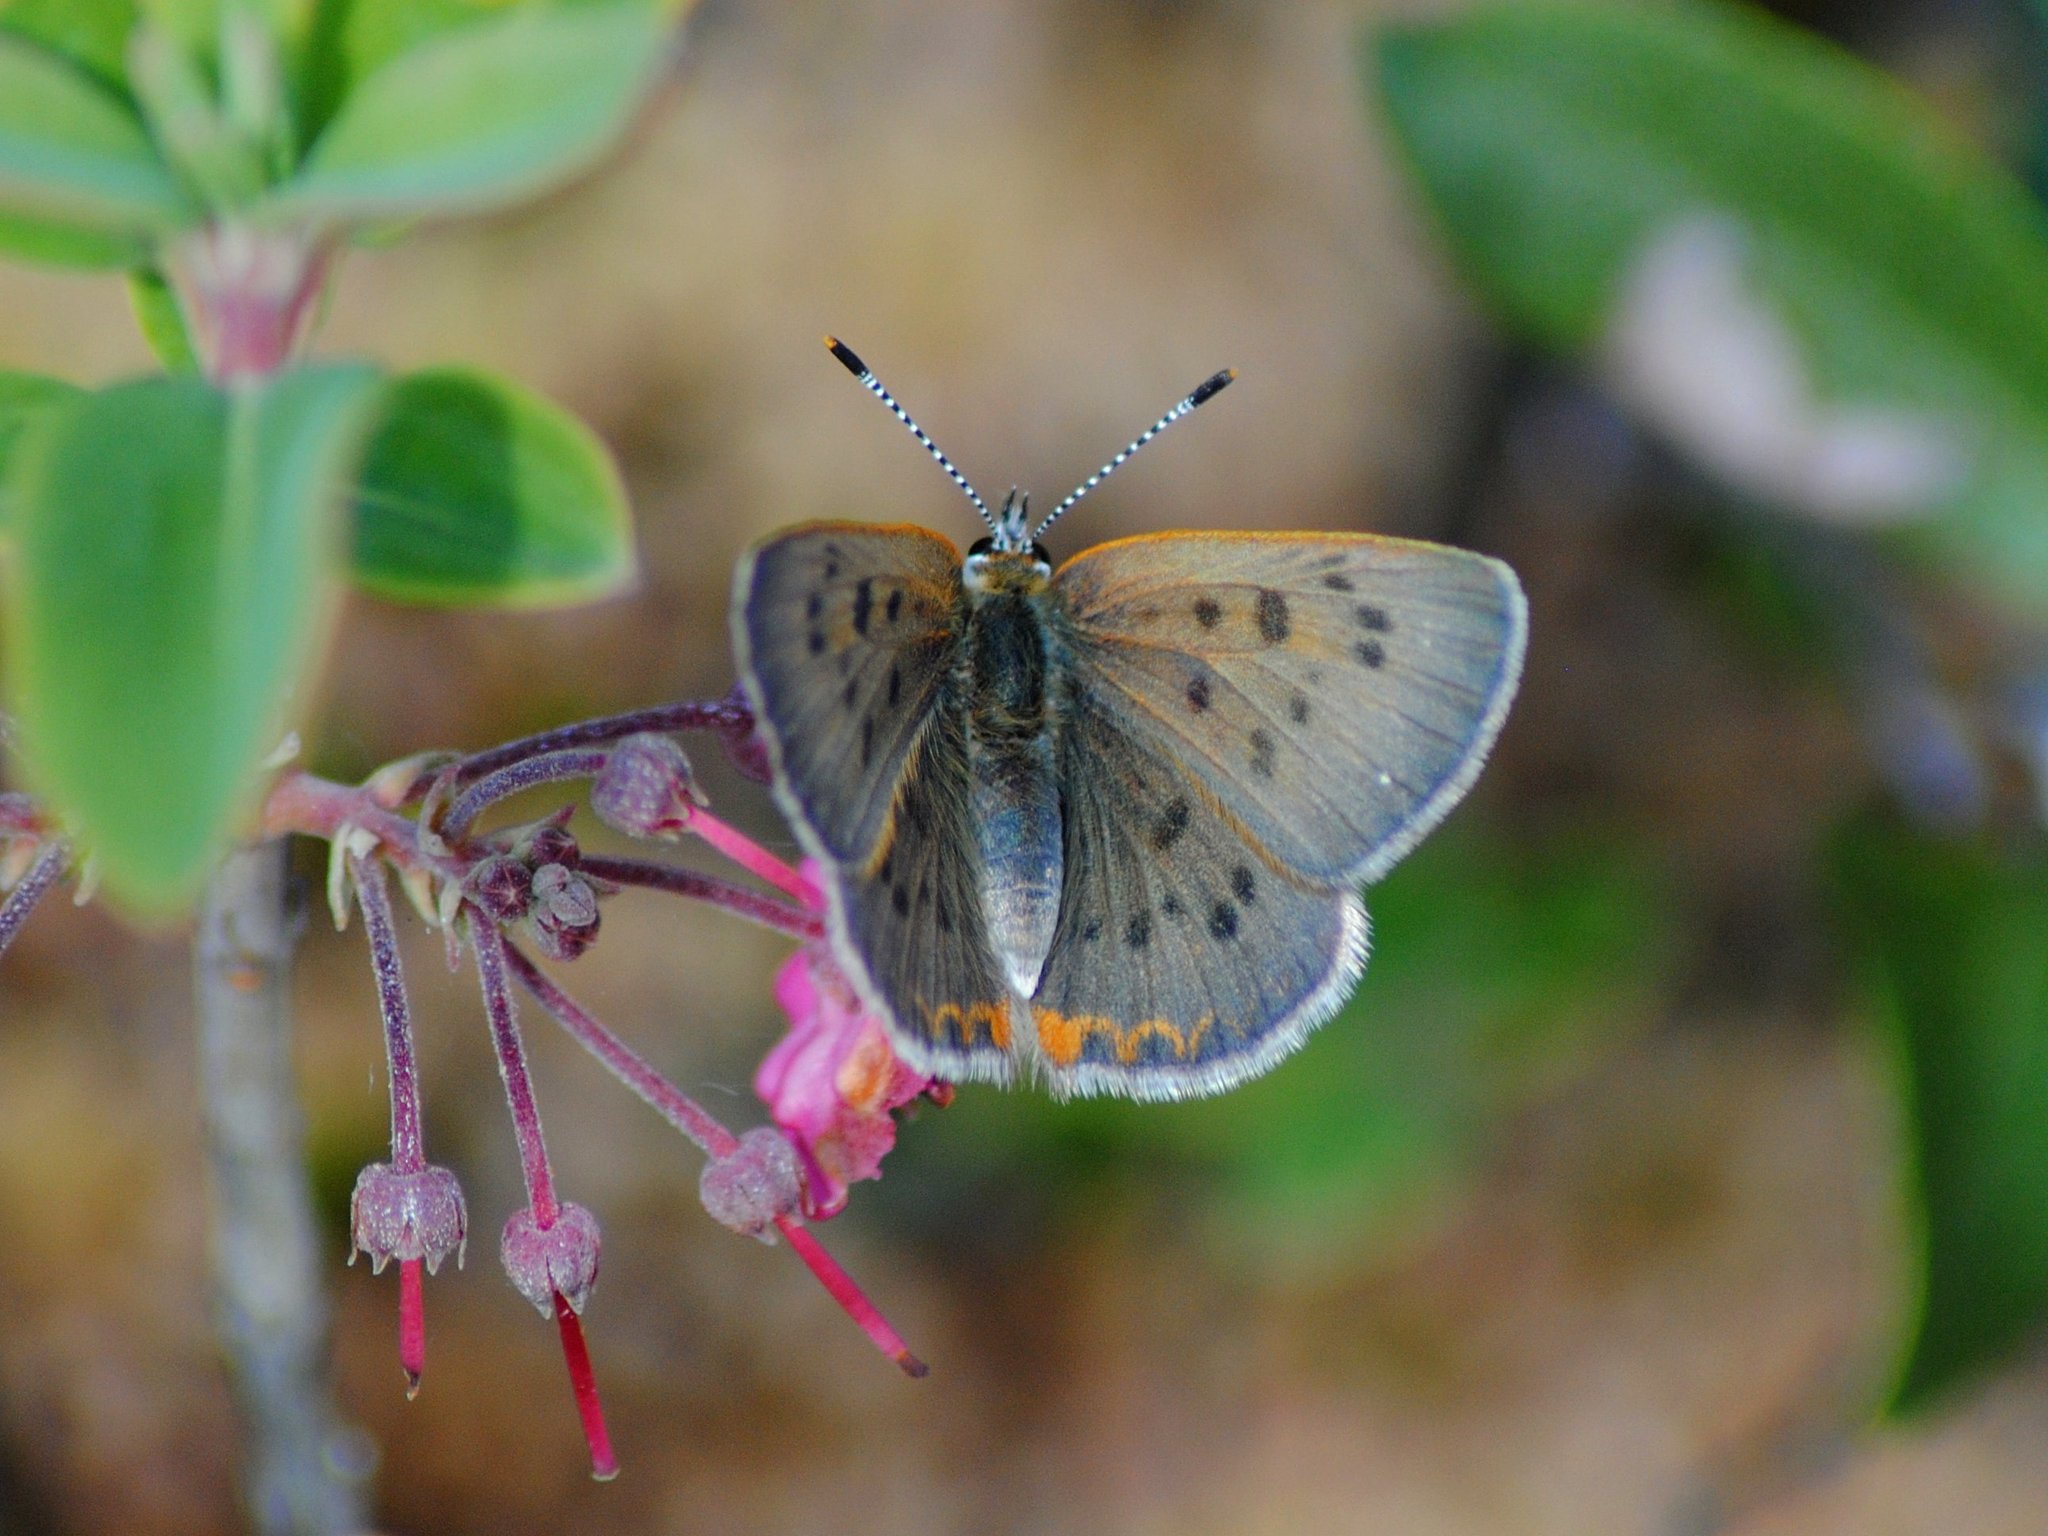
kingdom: Animalia
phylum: Arthropoda
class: Insecta
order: Lepidoptera
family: Lycaenidae
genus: Tharsalea
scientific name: Tharsalea epixanthe
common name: Bog copper
